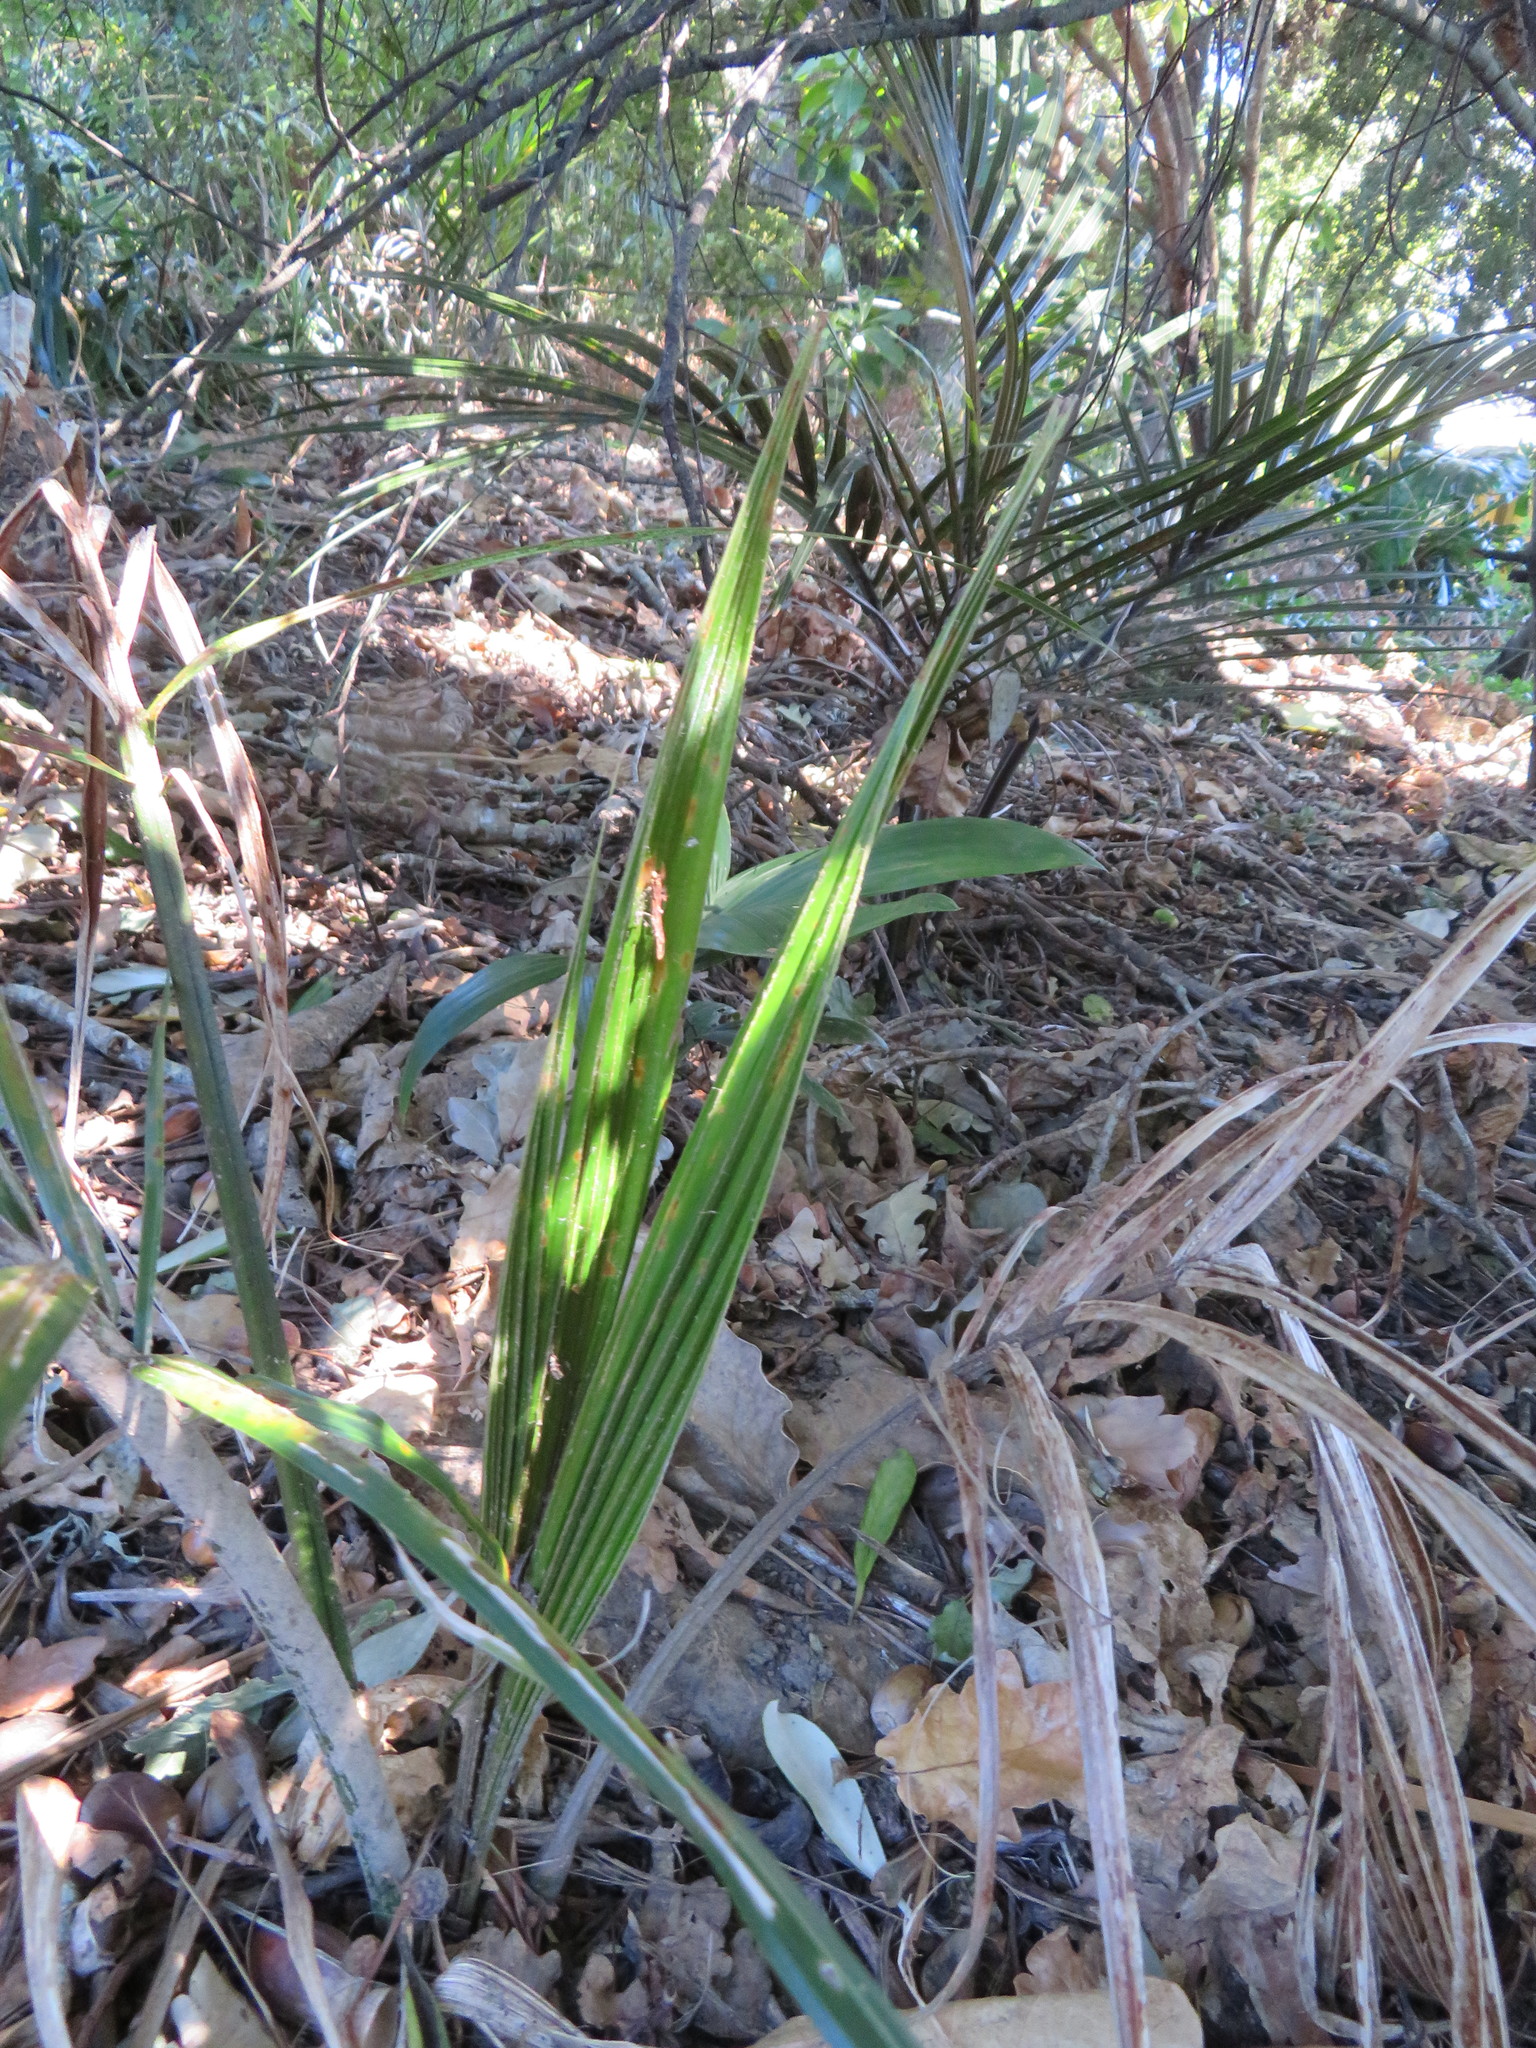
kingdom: Plantae
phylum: Tracheophyta
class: Liliopsida
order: Arecales
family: Arecaceae
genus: Archontophoenix
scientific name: Archontophoenix cunninghamiana
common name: Piccabeen bangalow palm
